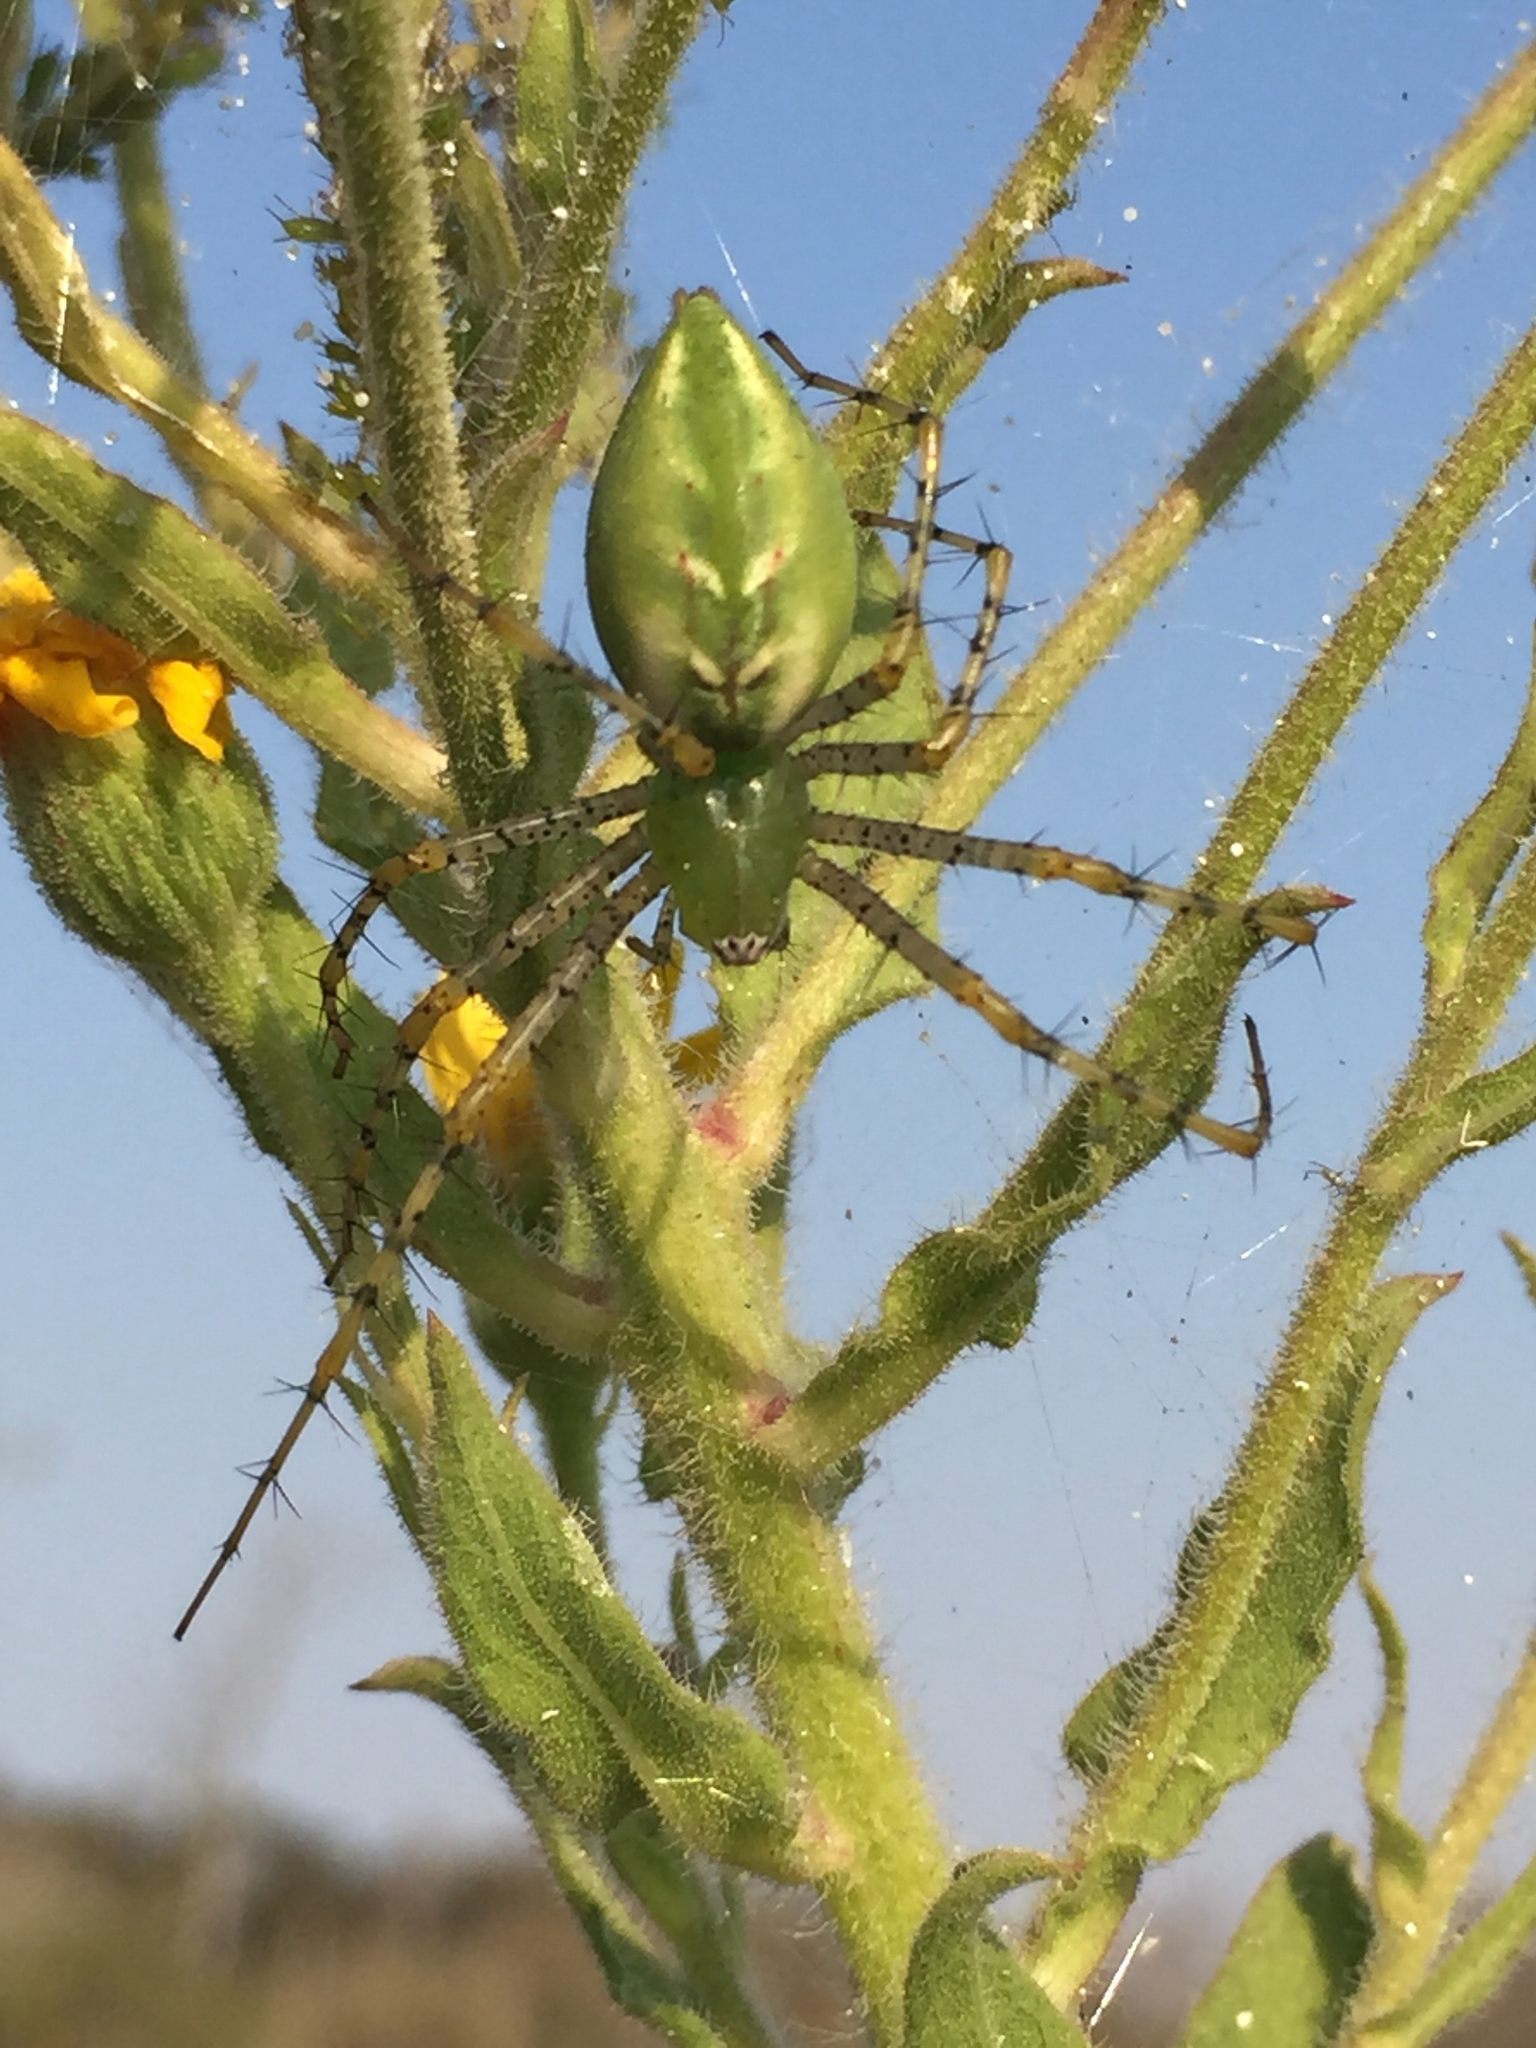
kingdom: Animalia
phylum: Arthropoda
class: Arachnida
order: Araneae
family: Oxyopidae
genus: Peucetia
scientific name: Peucetia viridans
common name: Lynx spiders
